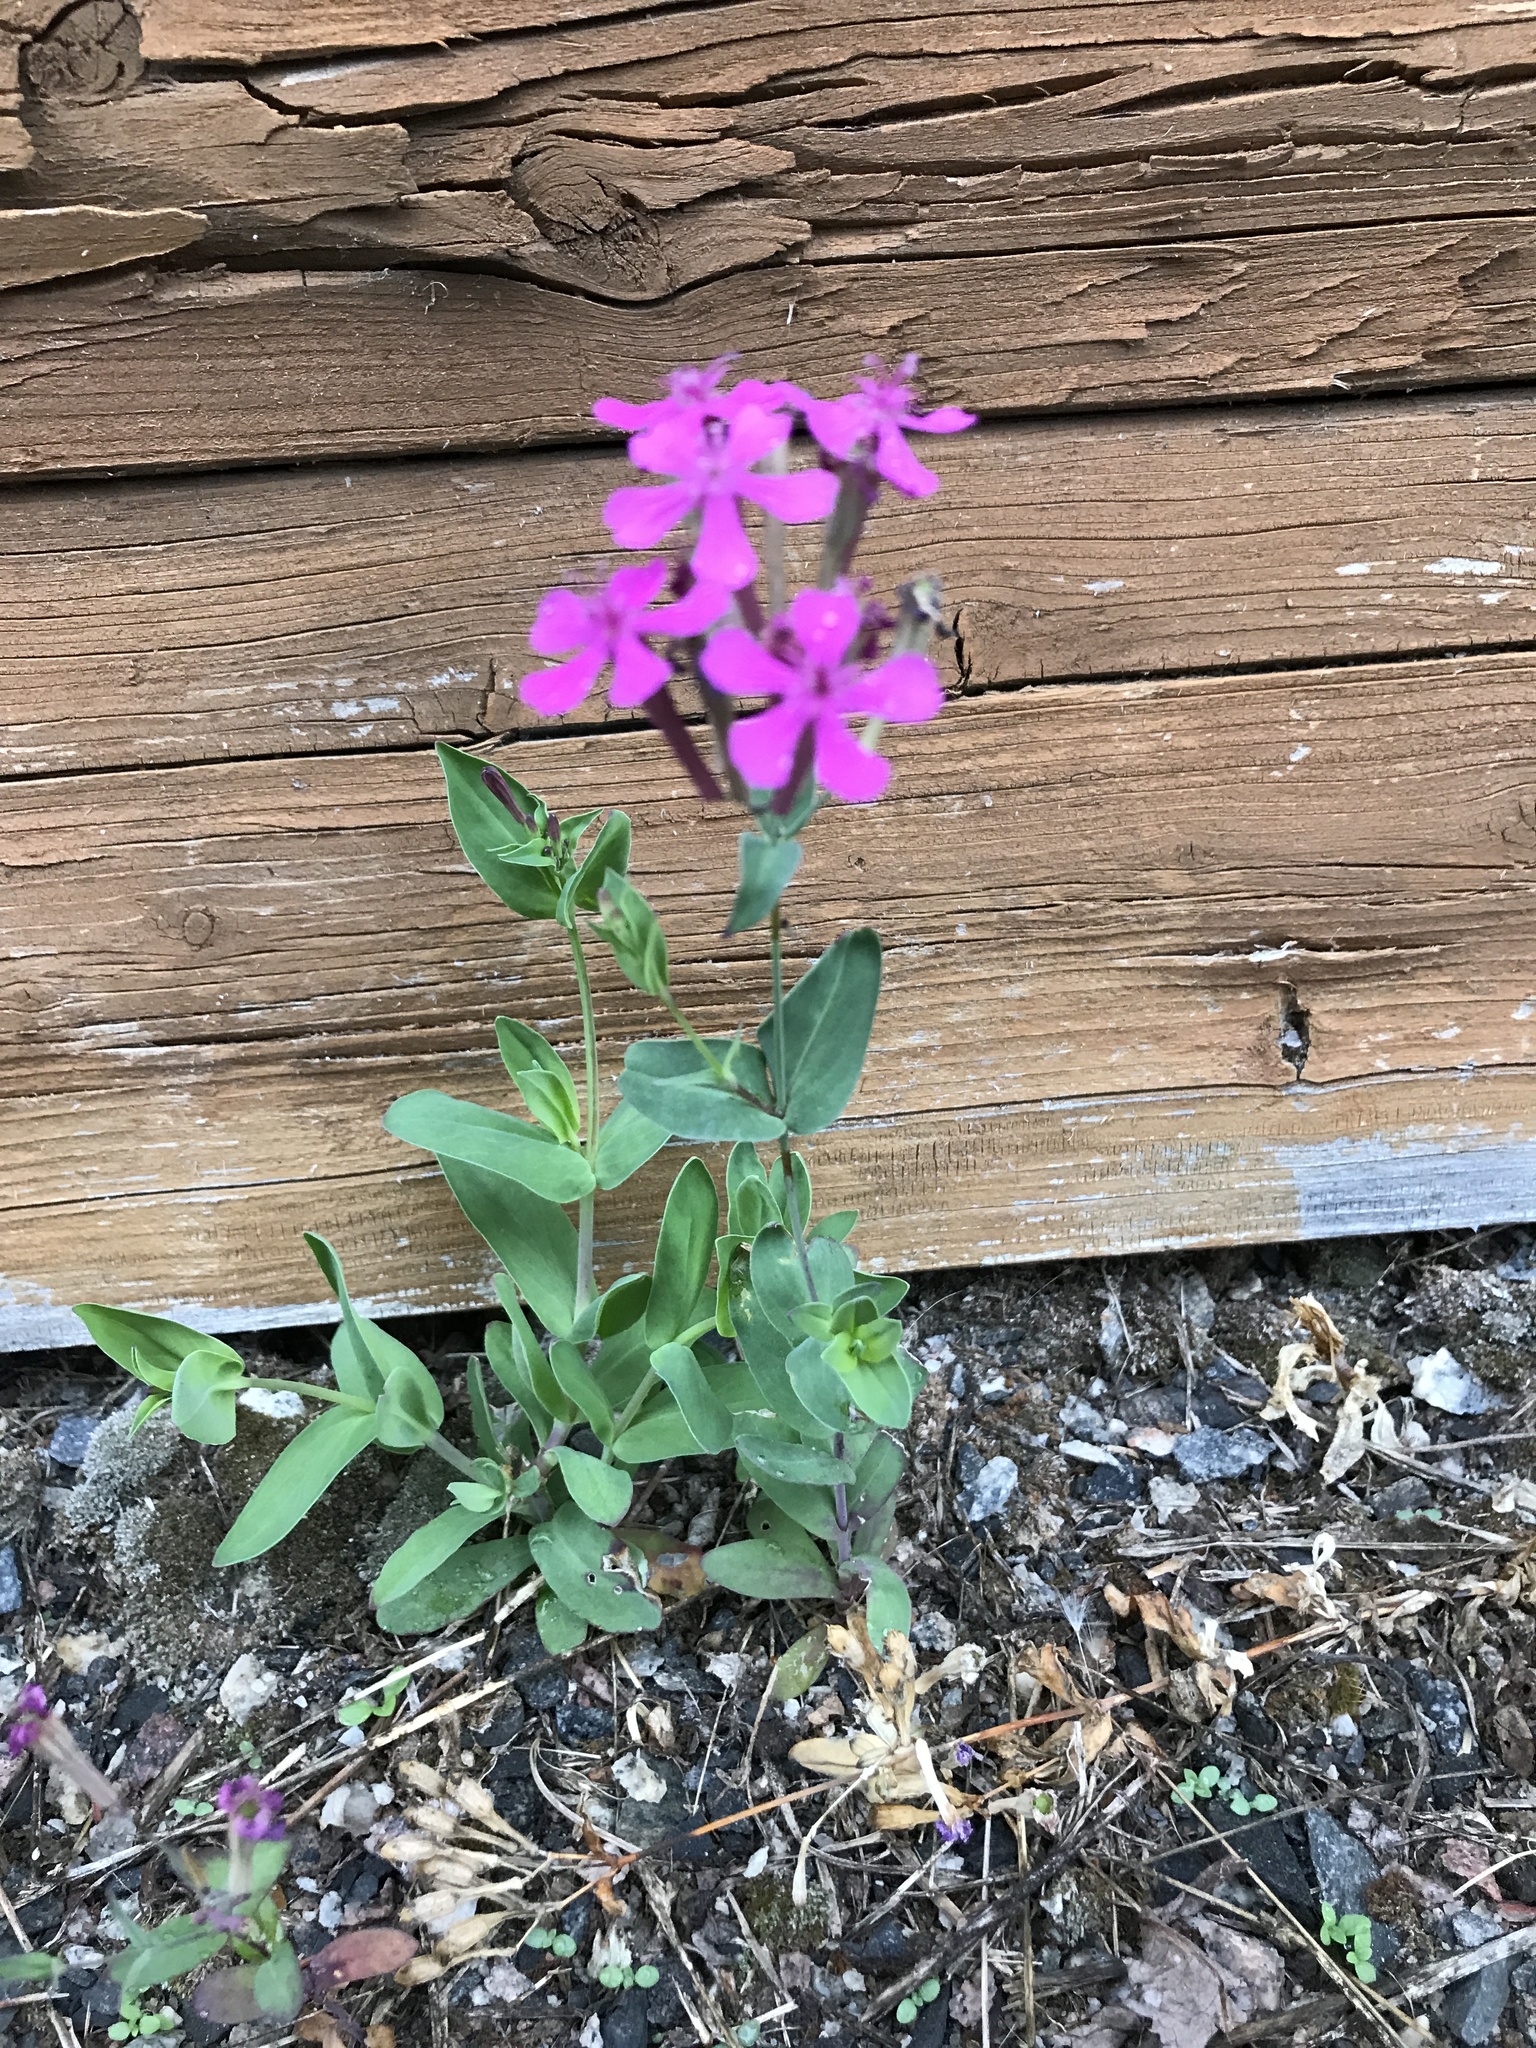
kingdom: Plantae
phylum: Tracheophyta
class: Magnoliopsida
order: Caryophyllales
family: Caryophyllaceae
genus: Atocion
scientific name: Atocion armeria
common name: Sweet william catchfly
